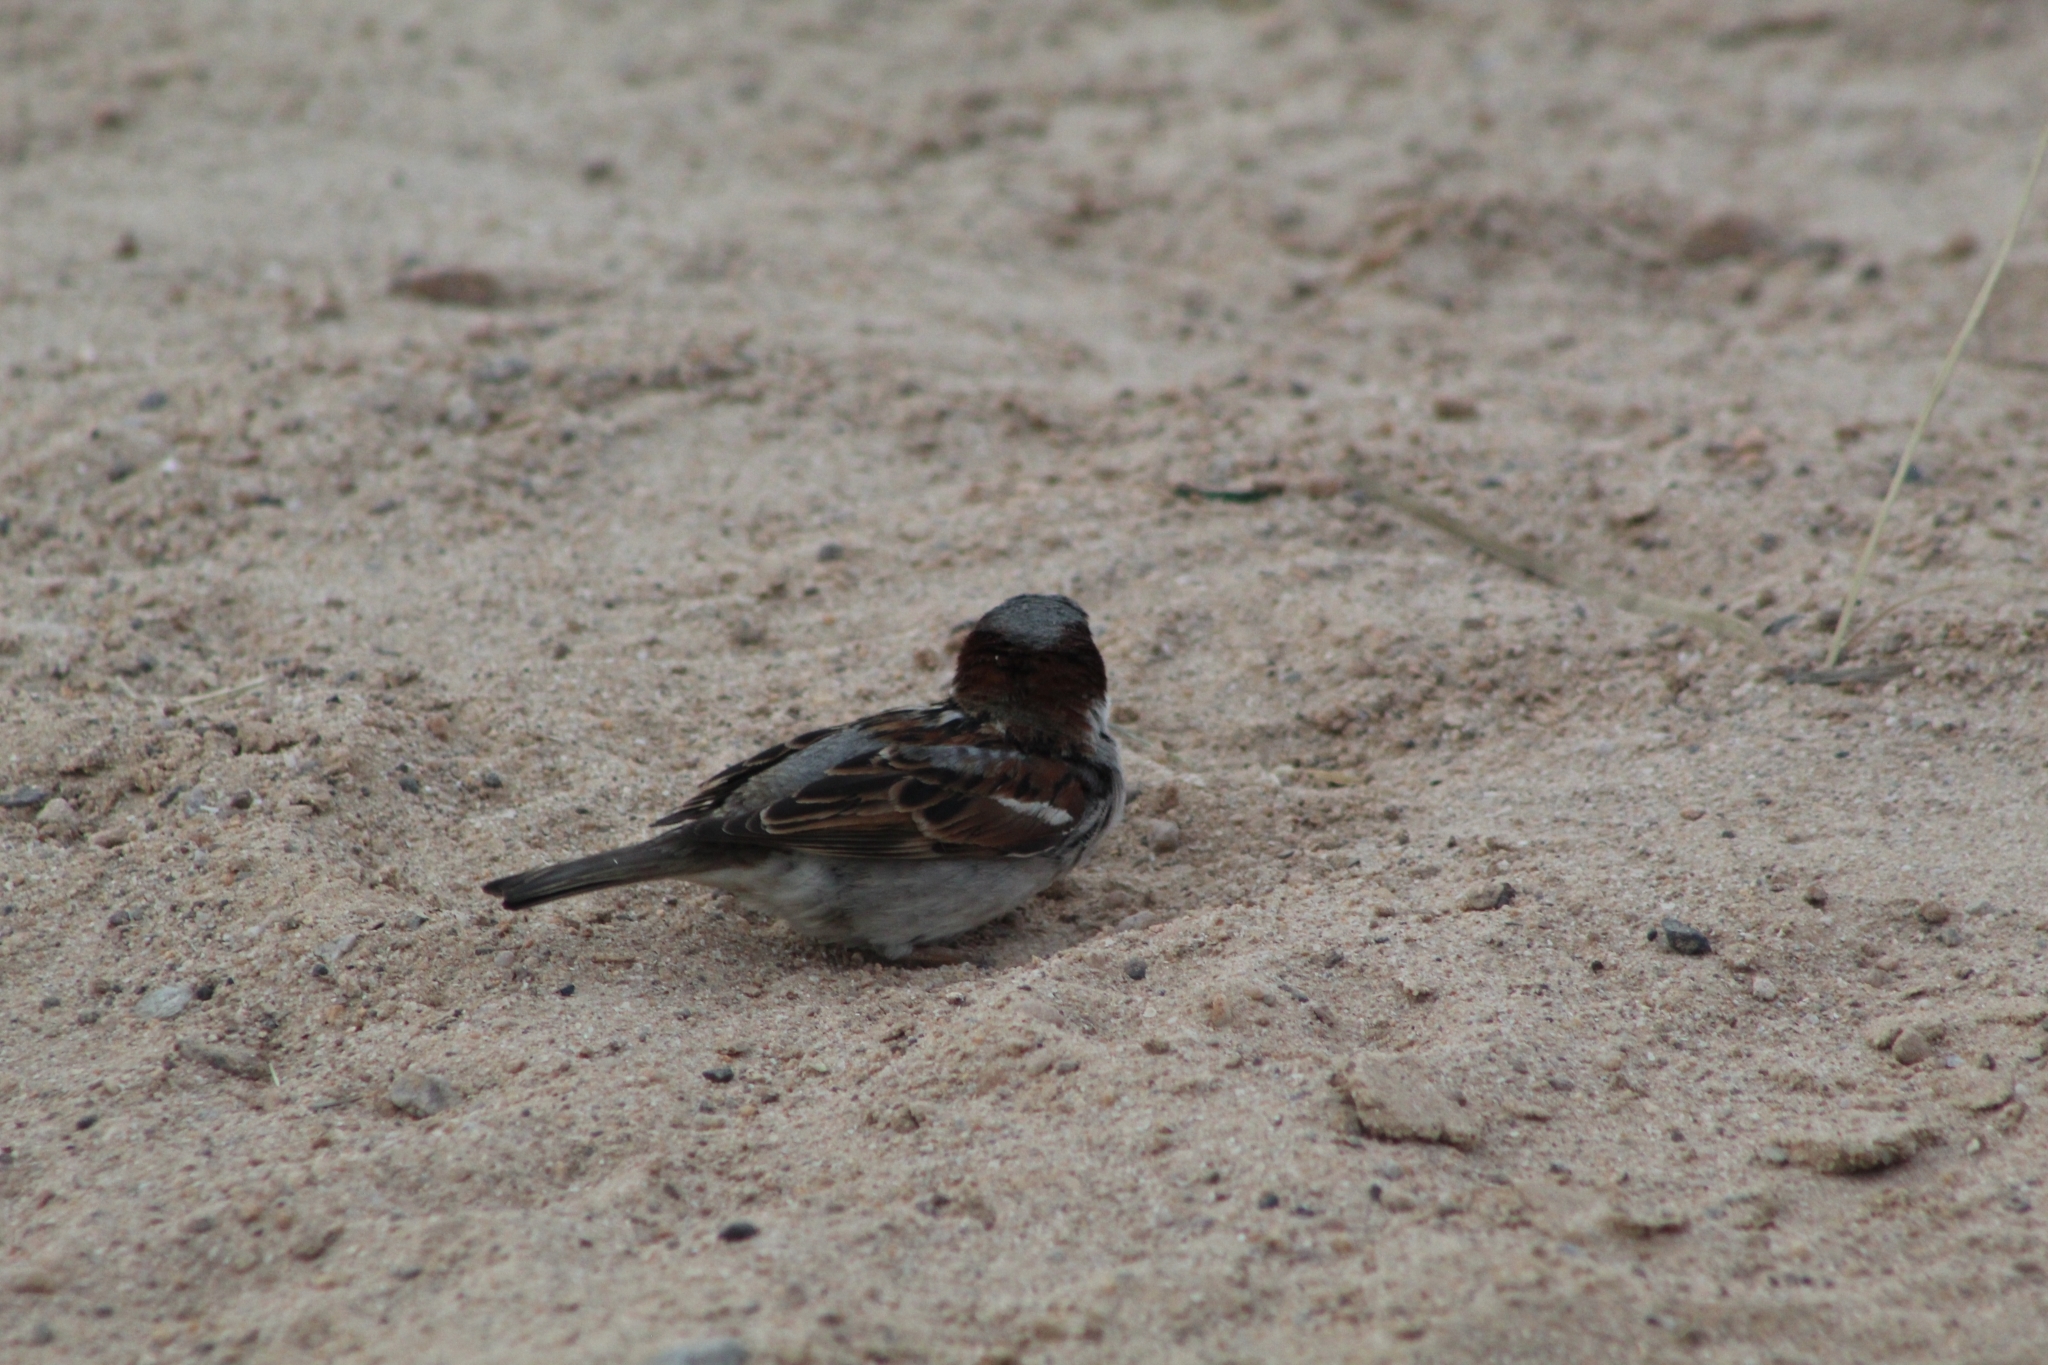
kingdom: Animalia
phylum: Chordata
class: Aves
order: Passeriformes
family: Passeridae
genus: Passer
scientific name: Passer domesticus
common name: House sparrow
